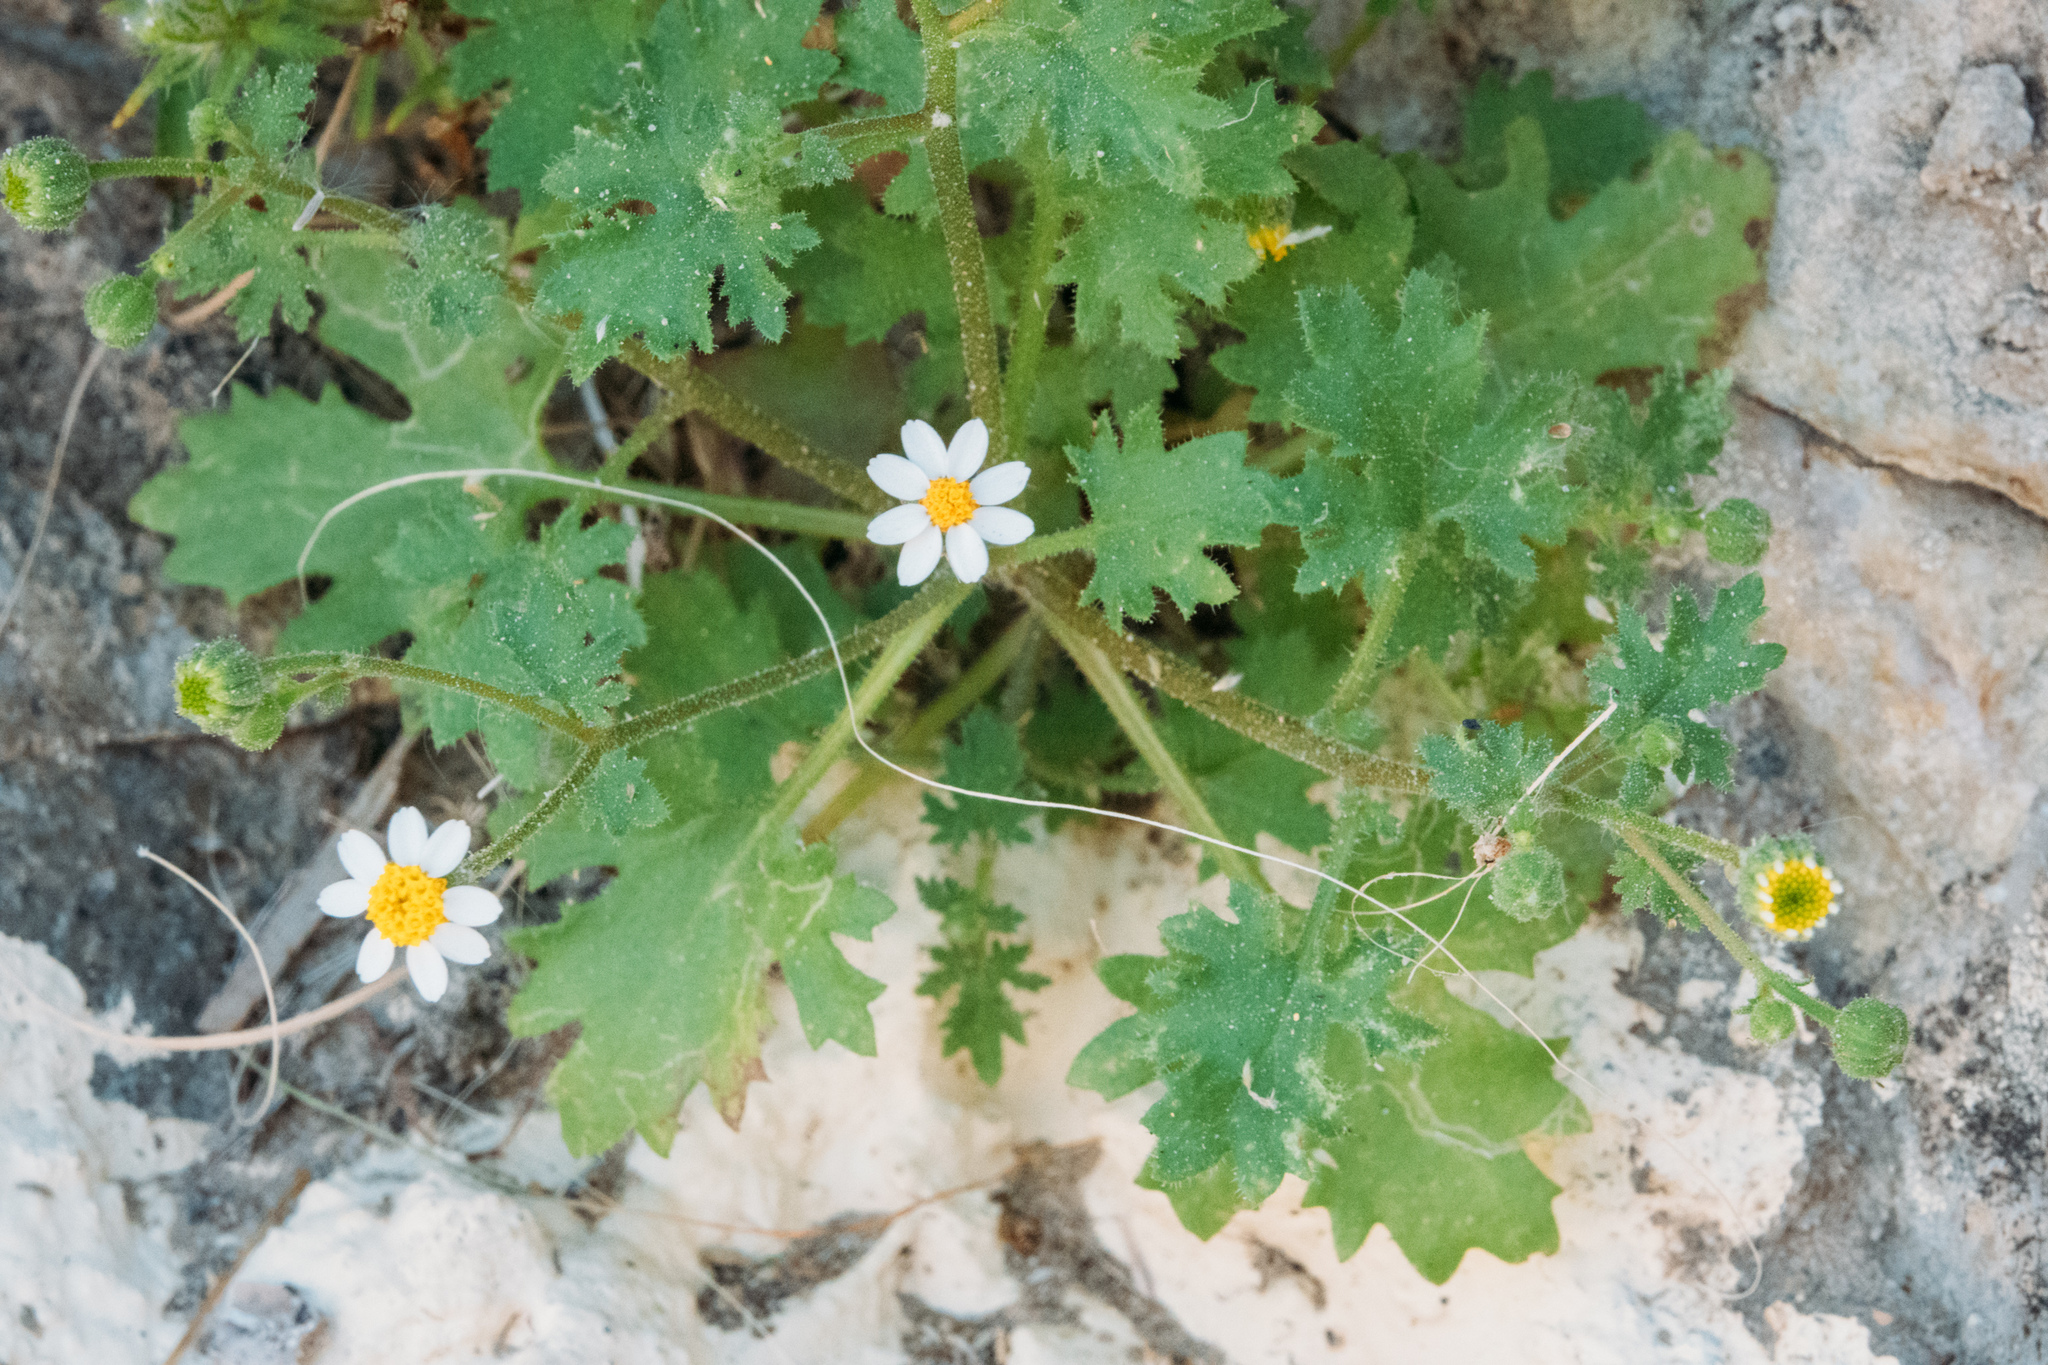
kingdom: Plantae
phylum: Tracheophyta
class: Magnoliopsida
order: Asterales
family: Asteraceae
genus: Laphamia
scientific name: Laphamia emoryi
